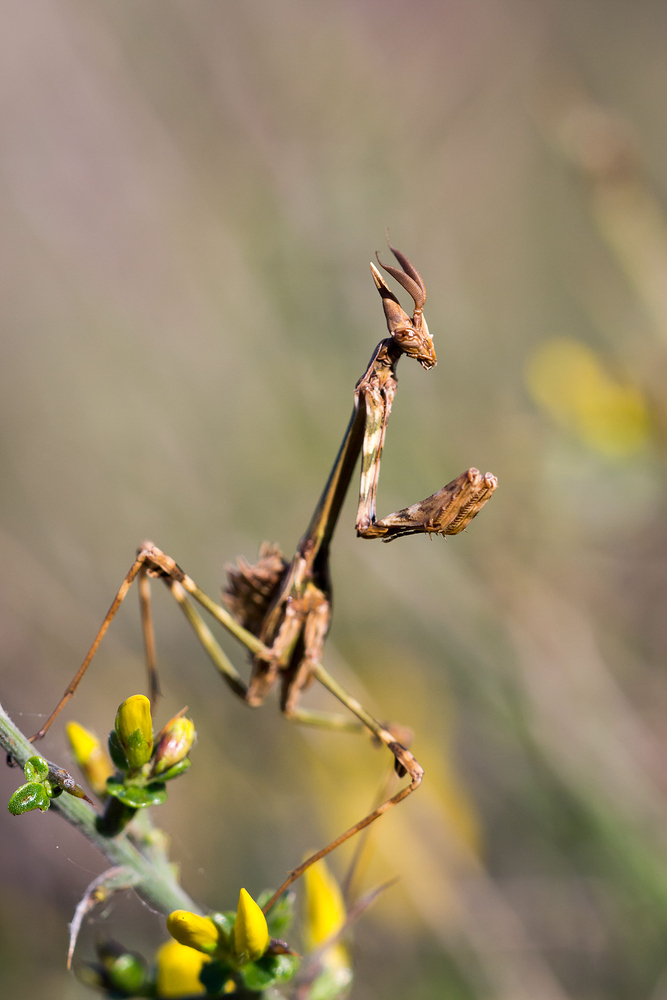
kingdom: Animalia
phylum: Arthropoda
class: Insecta
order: Mantodea
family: Empusidae
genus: Empusa
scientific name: Empusa pennata
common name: Conehead mantis
